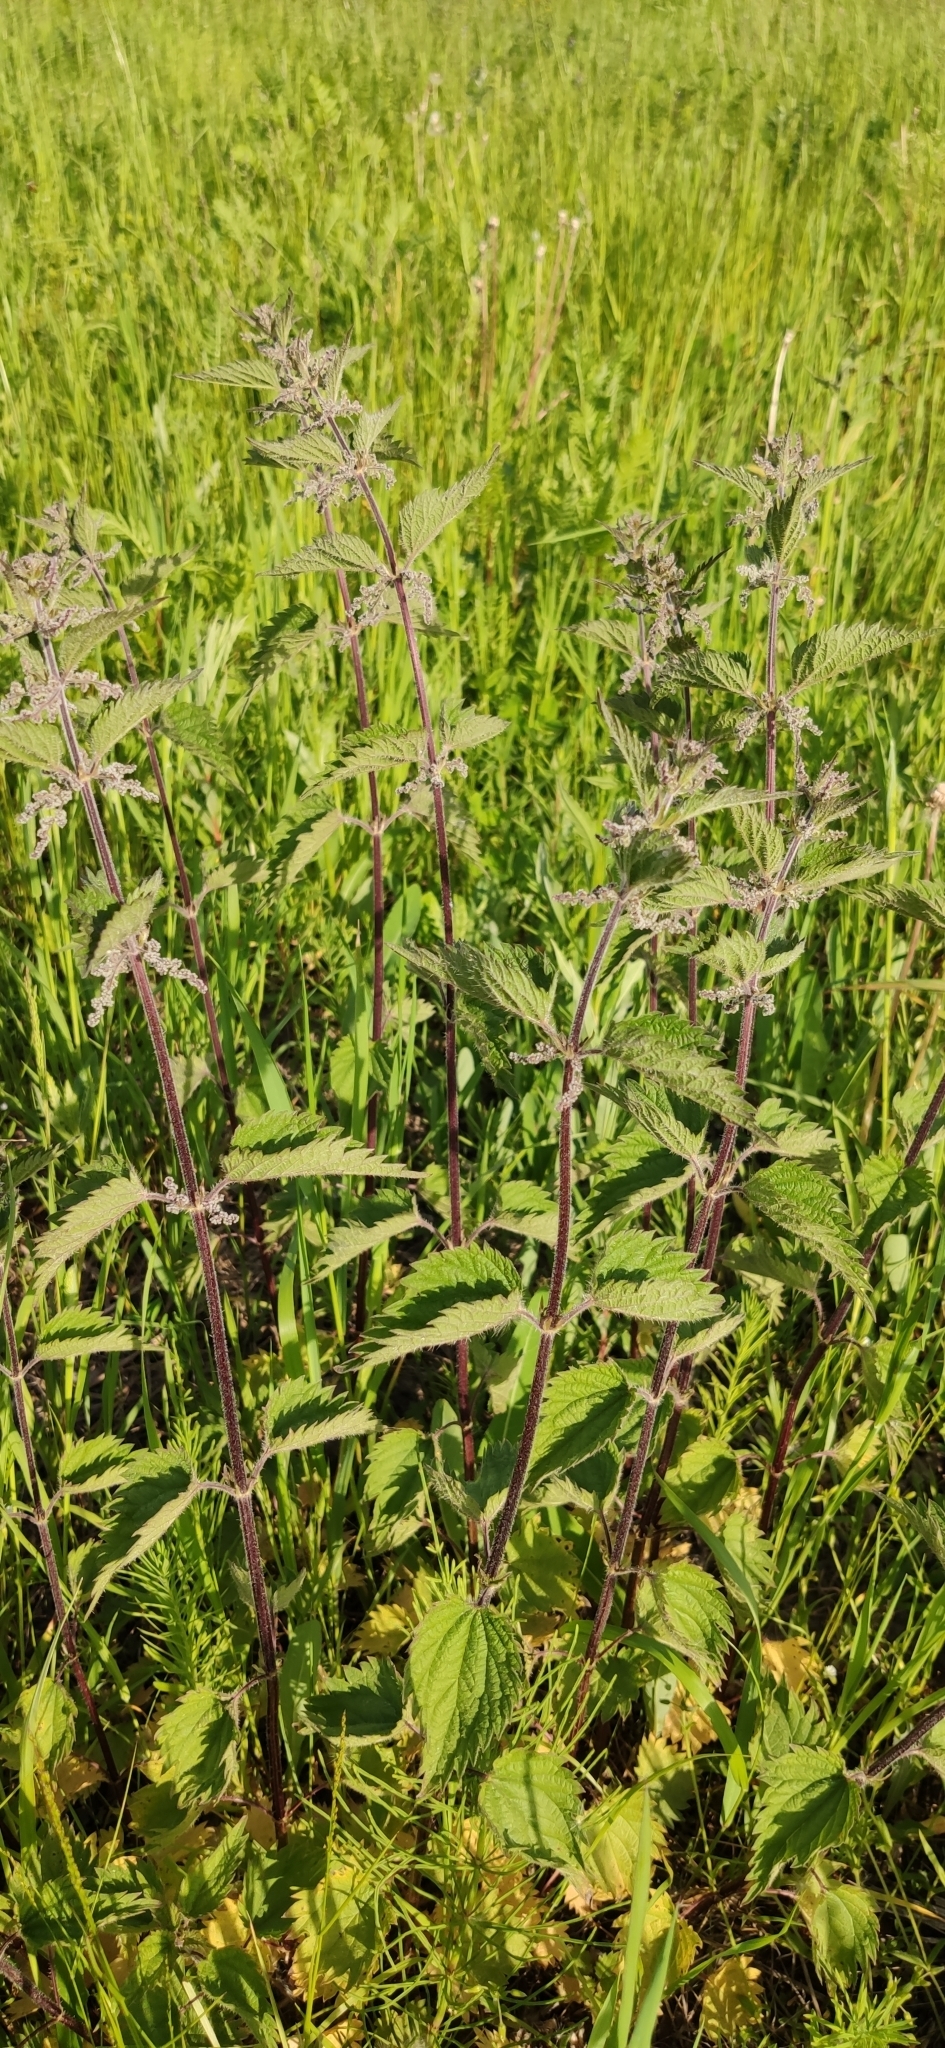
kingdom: Plantae
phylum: Tracheophyta
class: Magnoliopsida
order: Rosales
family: Urticaceae
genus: Urtica
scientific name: Urtica dioica
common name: Common nettle
